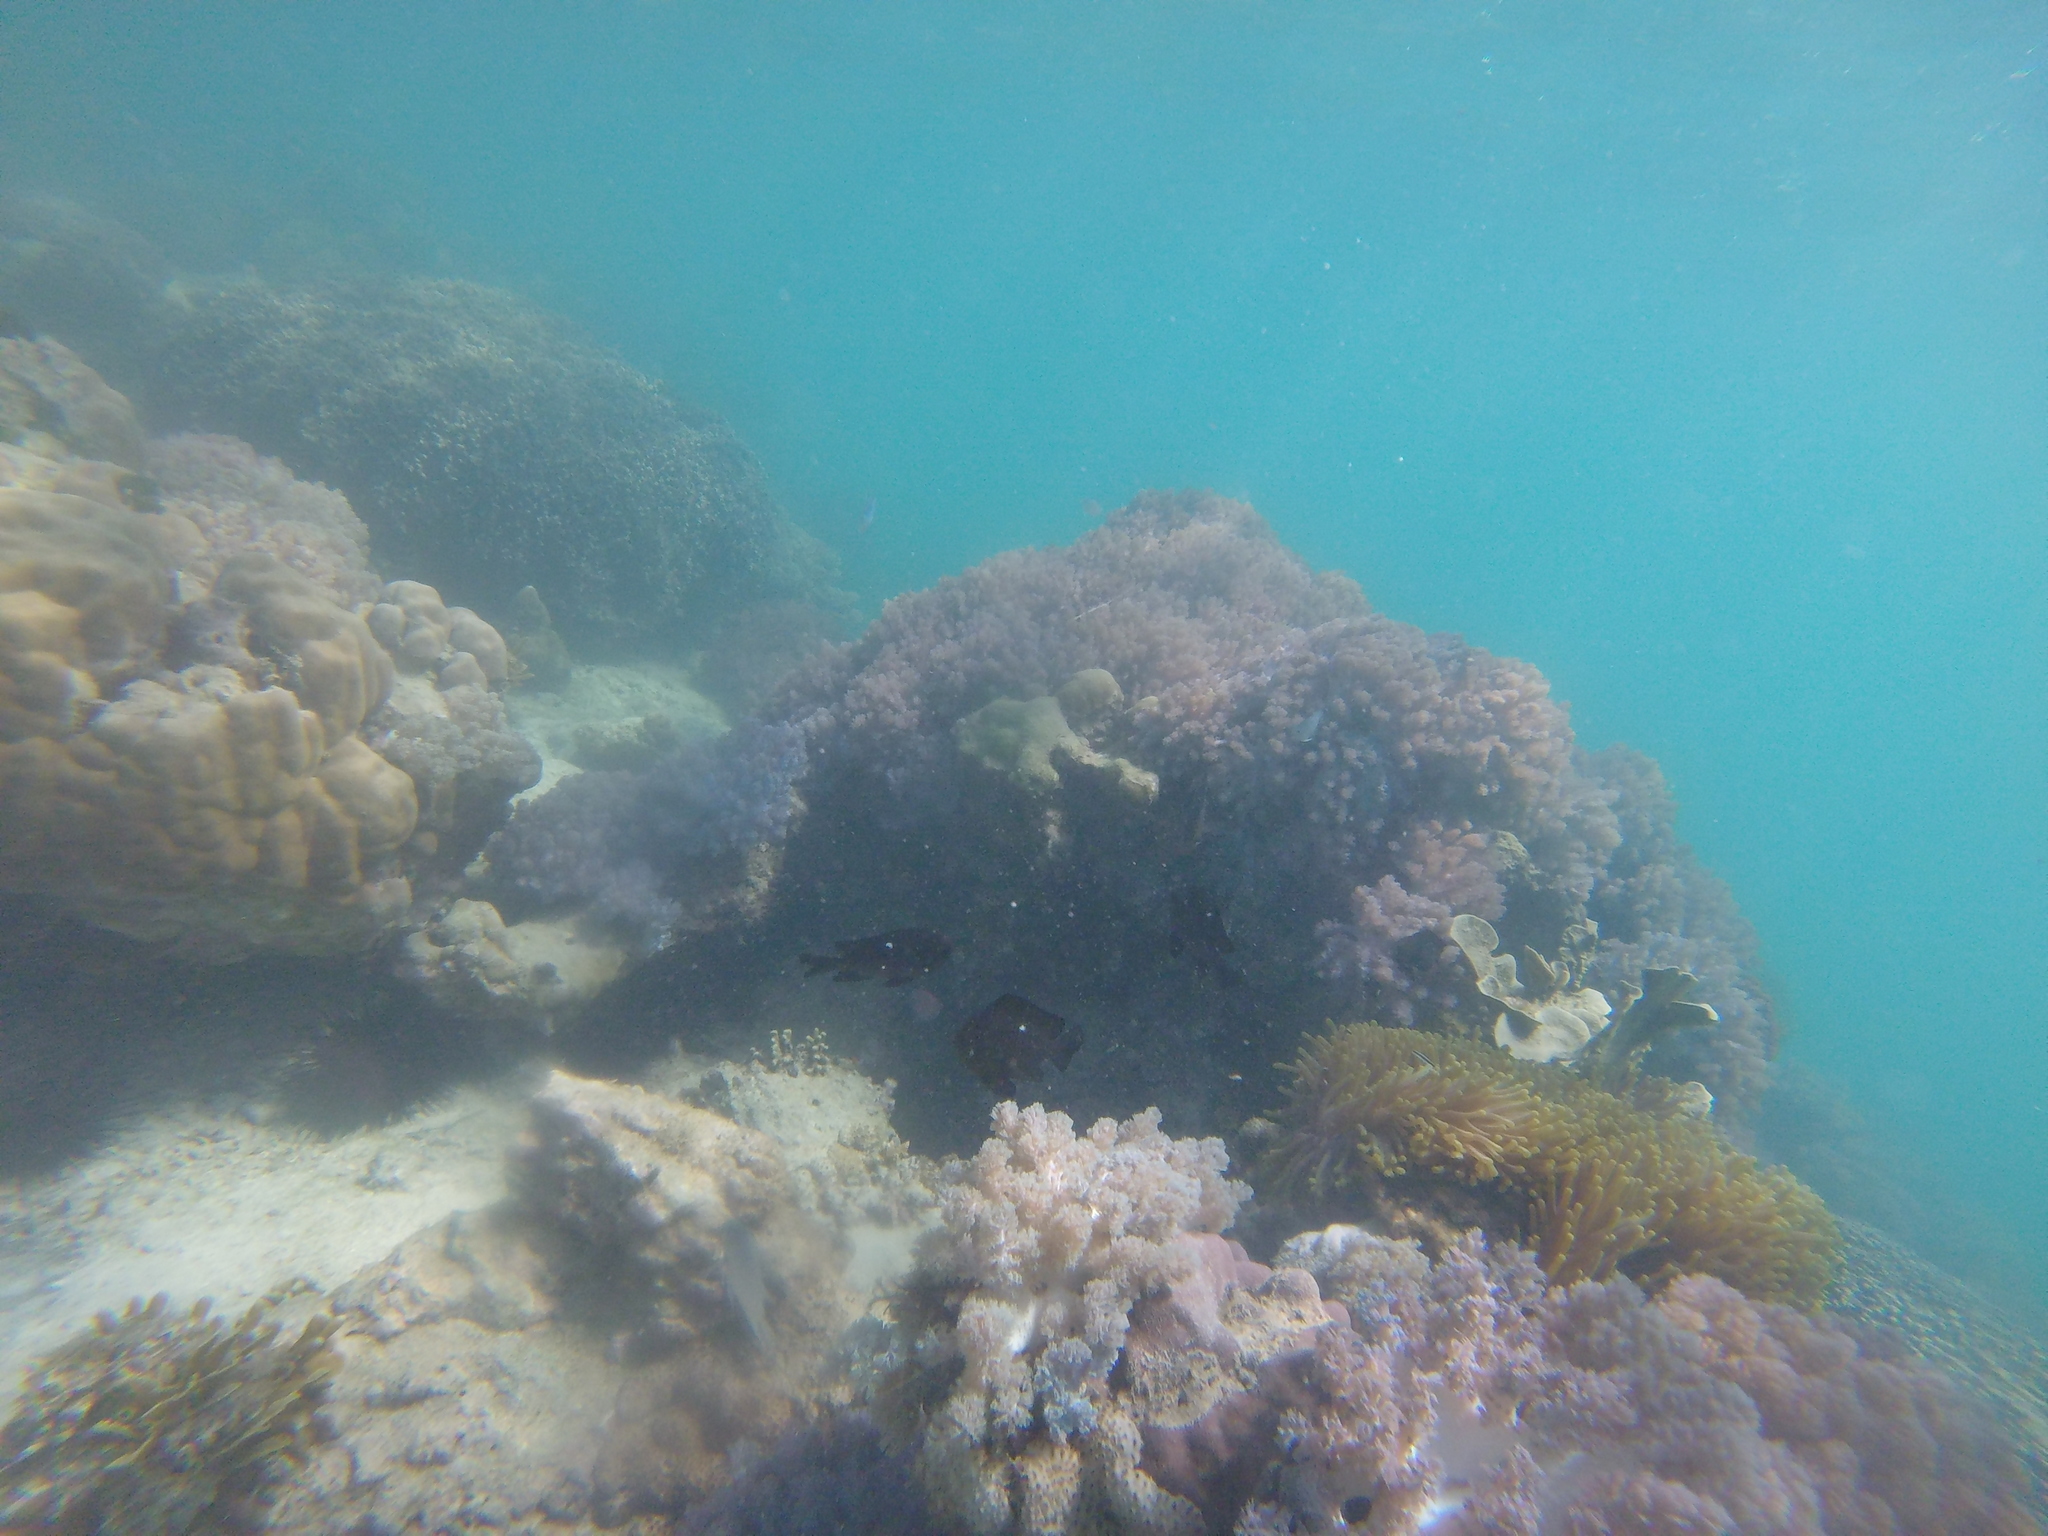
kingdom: Animalia
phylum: Chordata
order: Perciformes
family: Pomacentridae
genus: Dascyllus
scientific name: Dascyllus trimaculatus
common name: Threespot dascyllus
